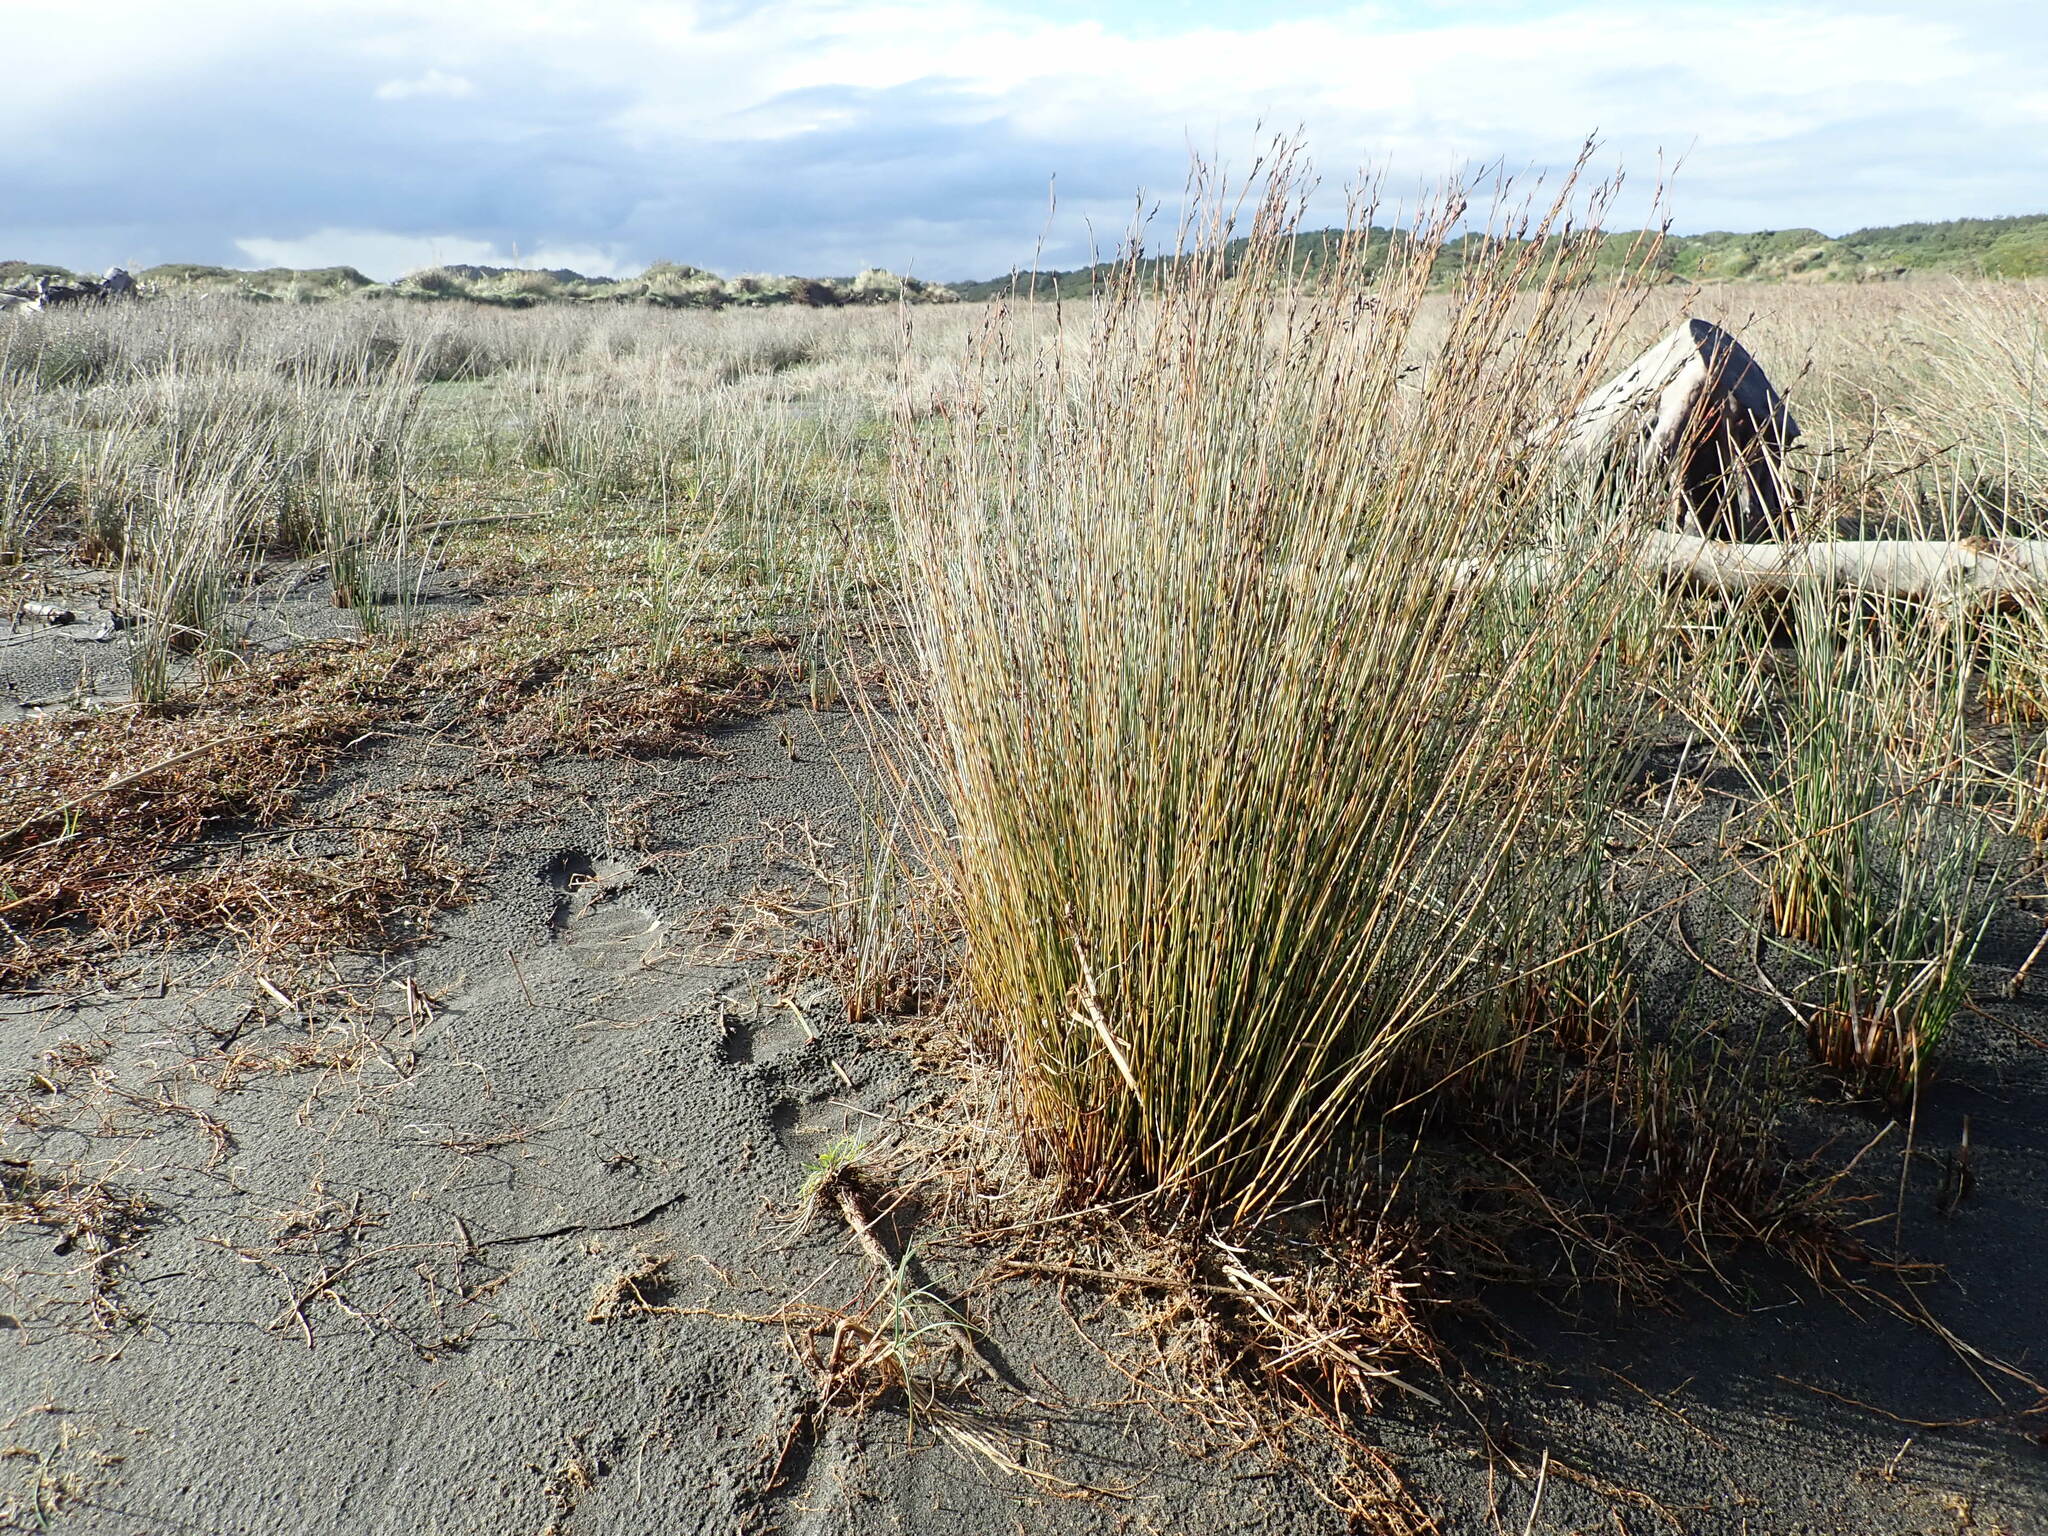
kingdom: Plantae
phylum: Tracheophyta
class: Liliopsida
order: Poales
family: Restionaceae
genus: Apodasmia
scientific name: Apodasmia similis
